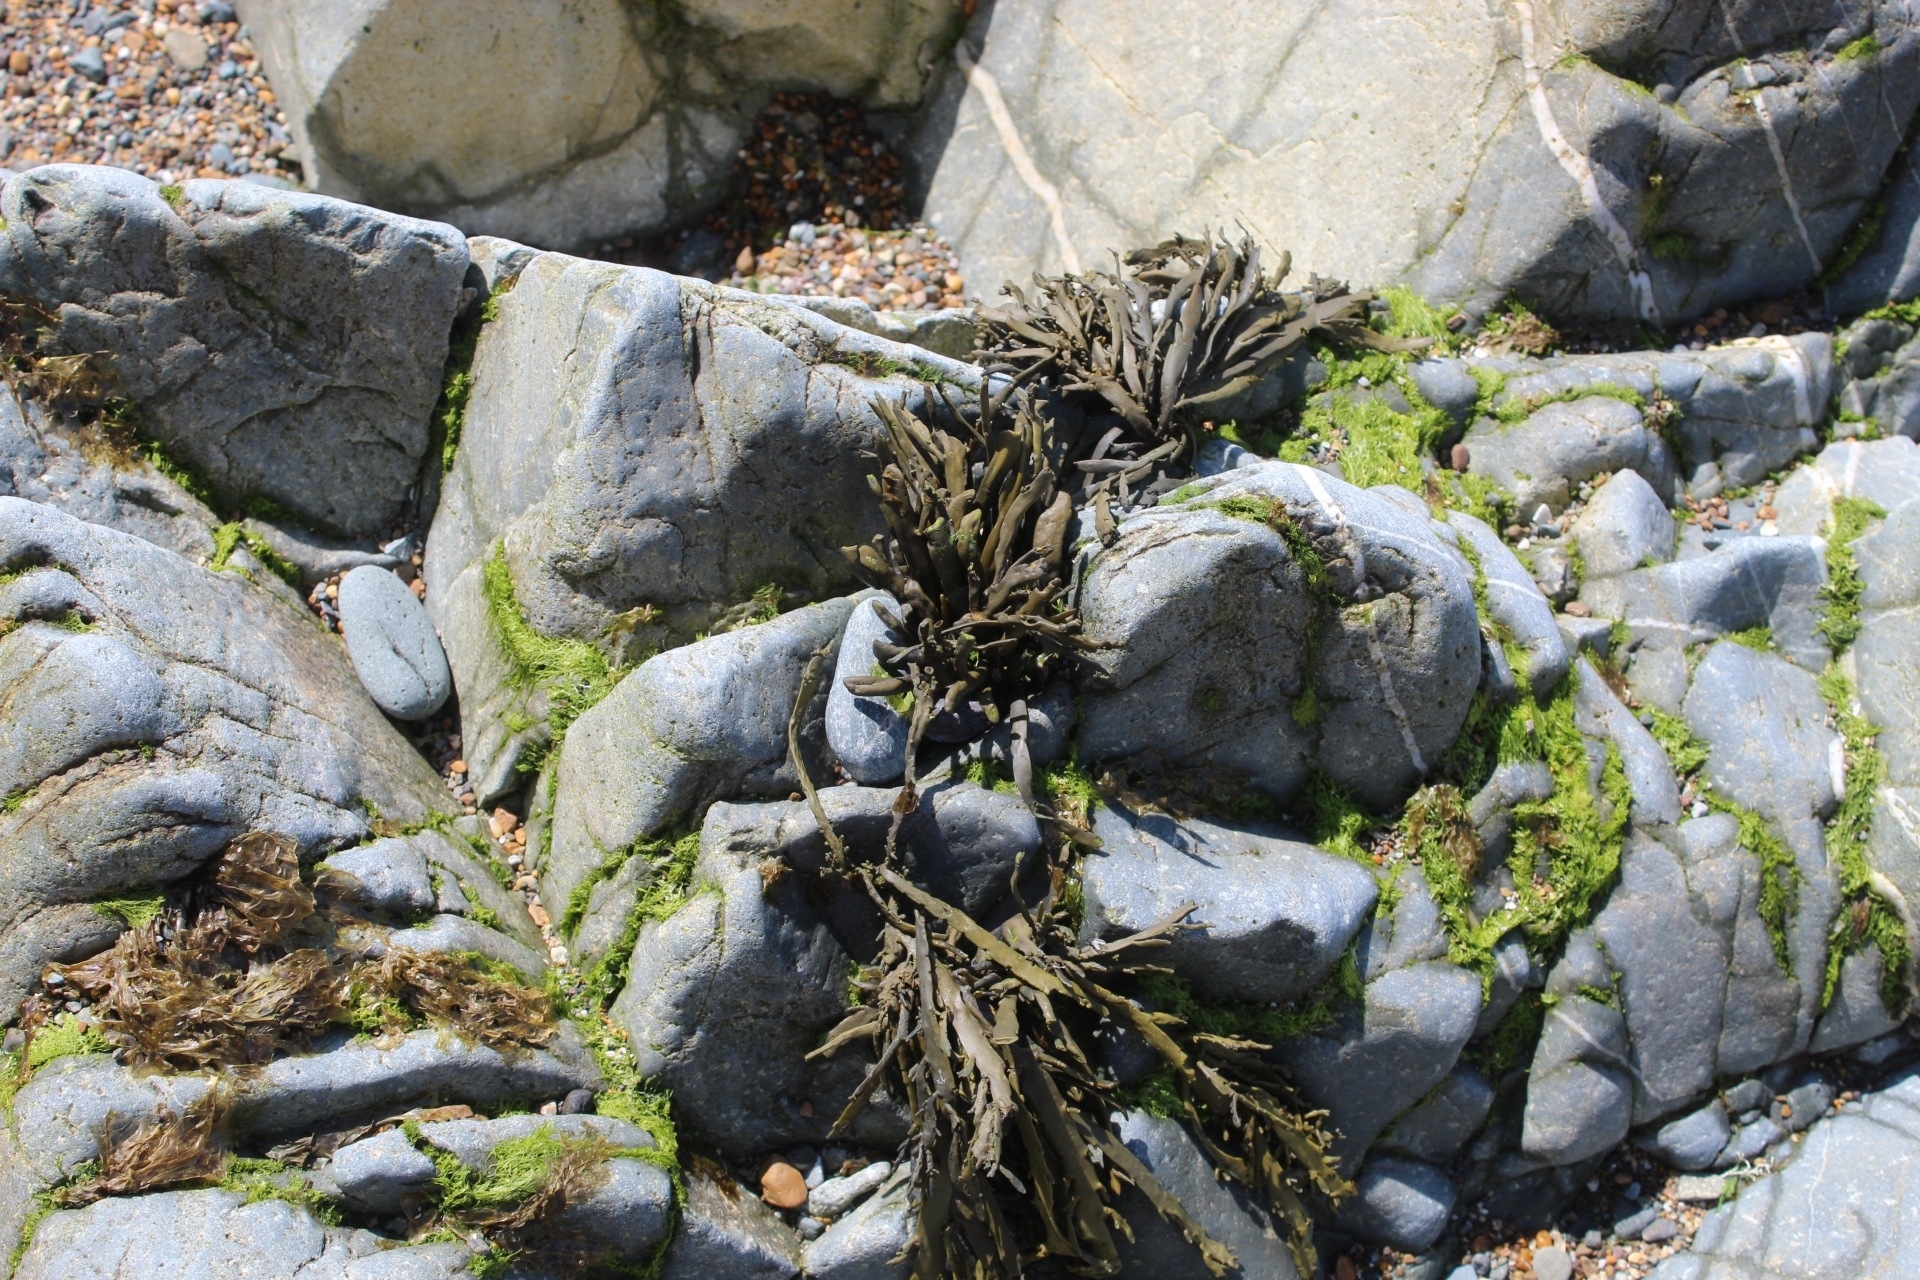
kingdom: Chromista
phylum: Ochrophyta
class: Phaeophyceae
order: Fucales
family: Fucaceae
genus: Ascophyllum
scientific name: Ascophyllum nodosum
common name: Knotted wrack
